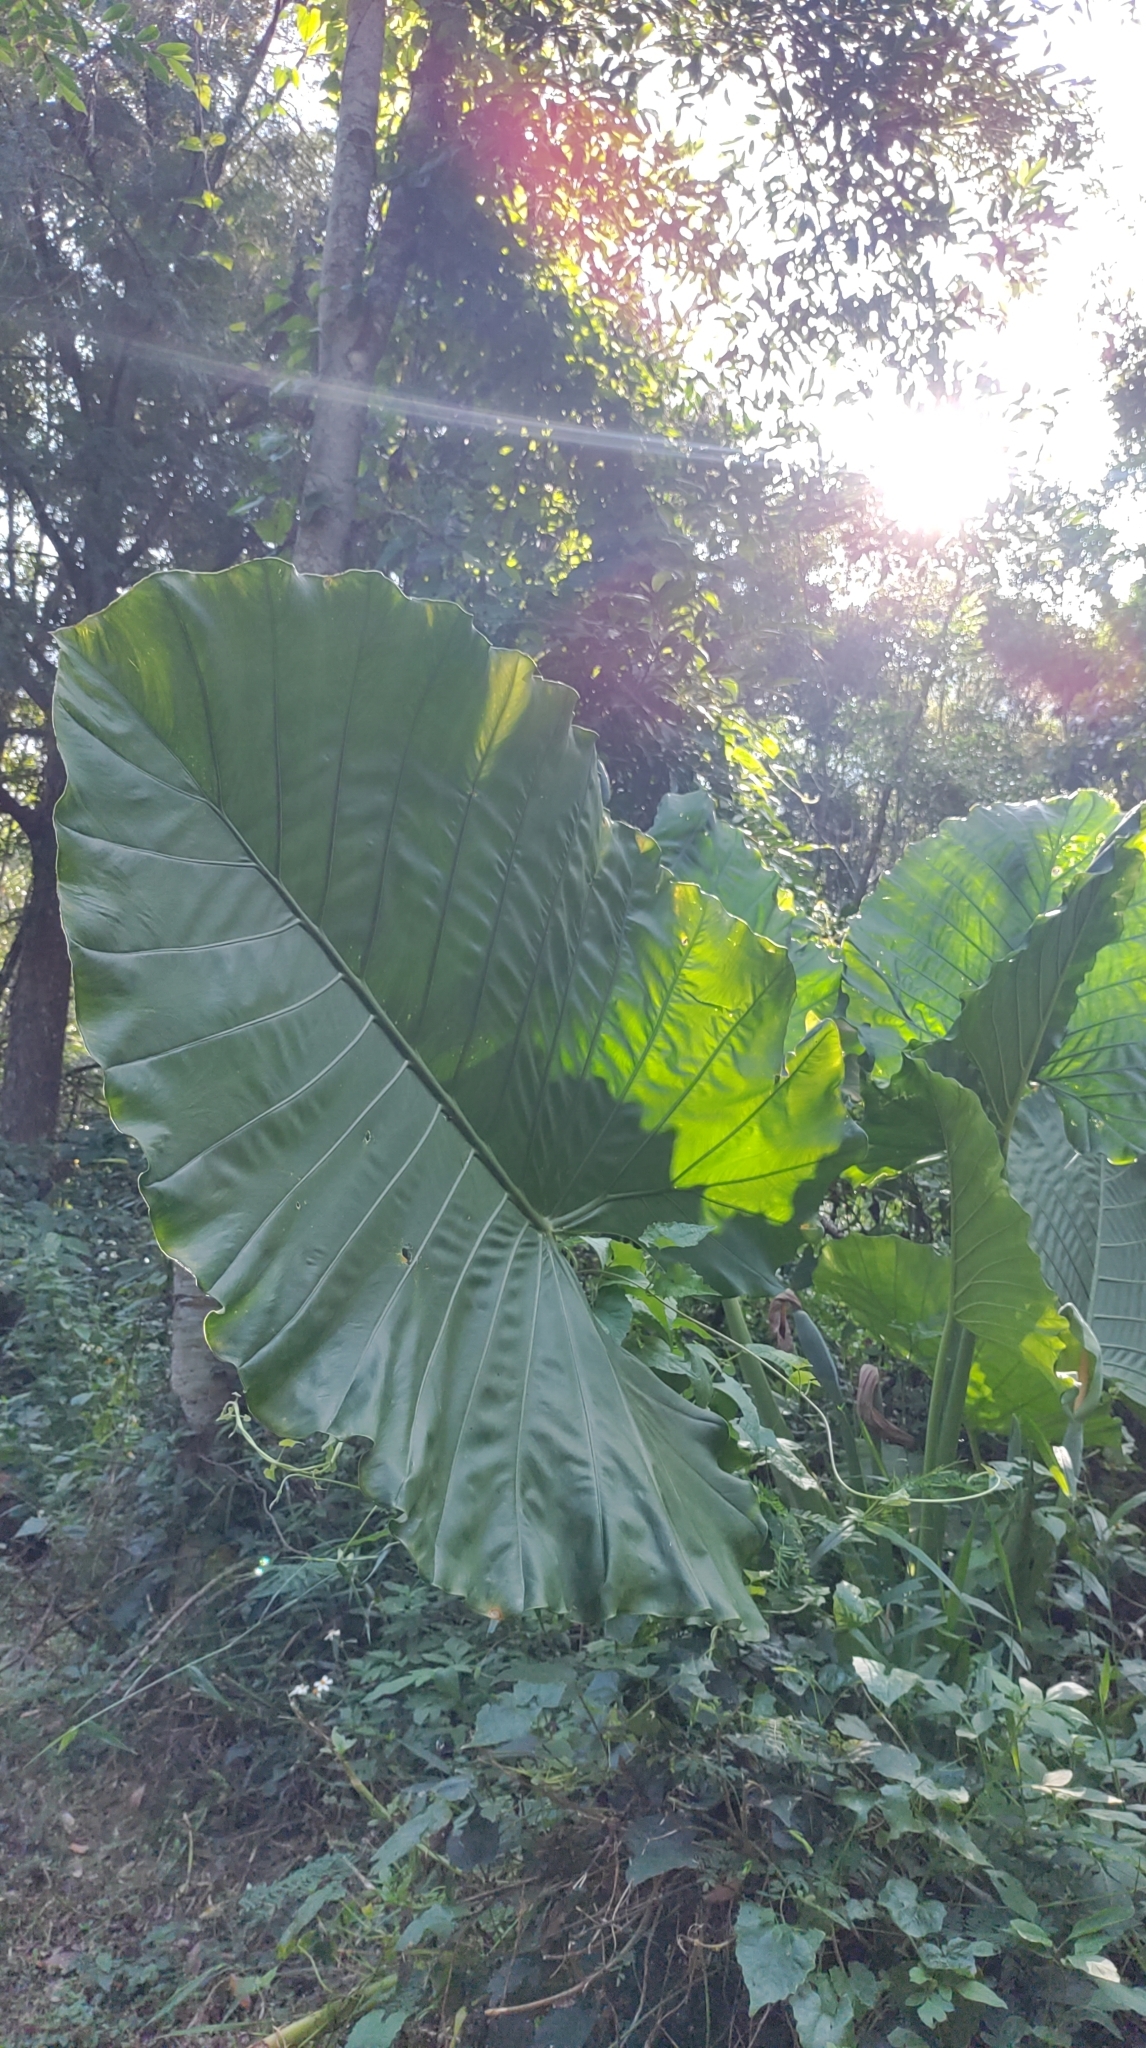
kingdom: Plantae
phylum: Tracheophyta
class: Liliopsida
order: Alismatales
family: Araceae
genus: Alocasia
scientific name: Alocasia odora
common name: Asian taro
